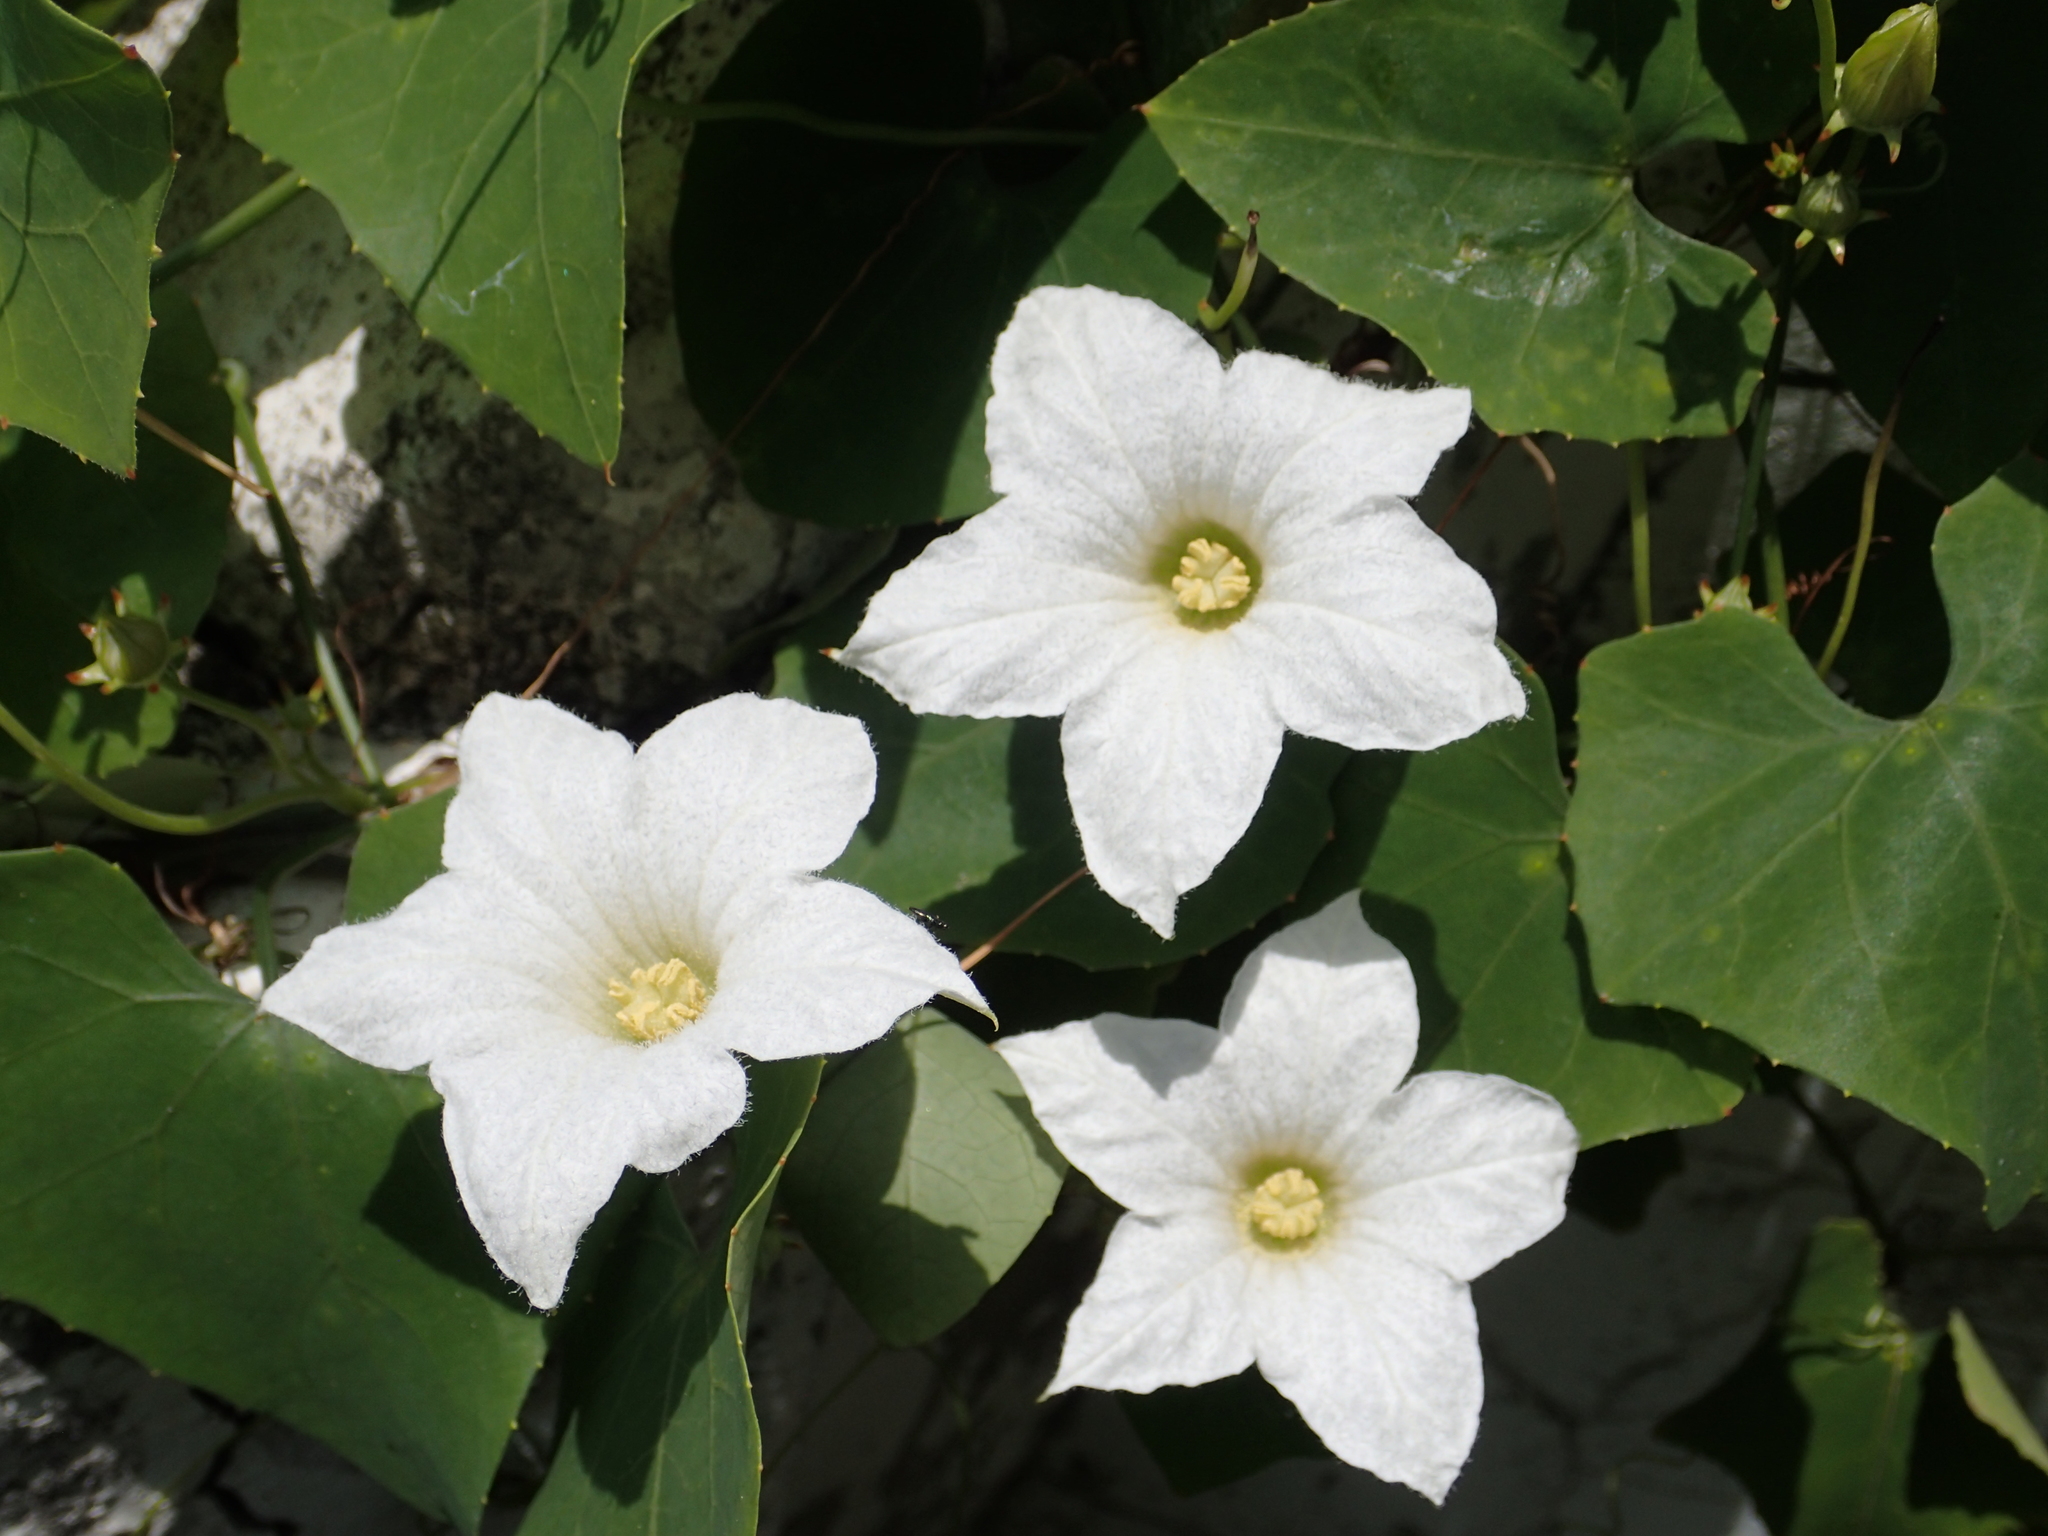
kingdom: Plantae
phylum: Tracheophyta
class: Magnoliopsida
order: Cucurbitales
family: Cucurbitaceae
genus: Coccinia
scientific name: Coccinia grandis
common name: Ivy gourd
